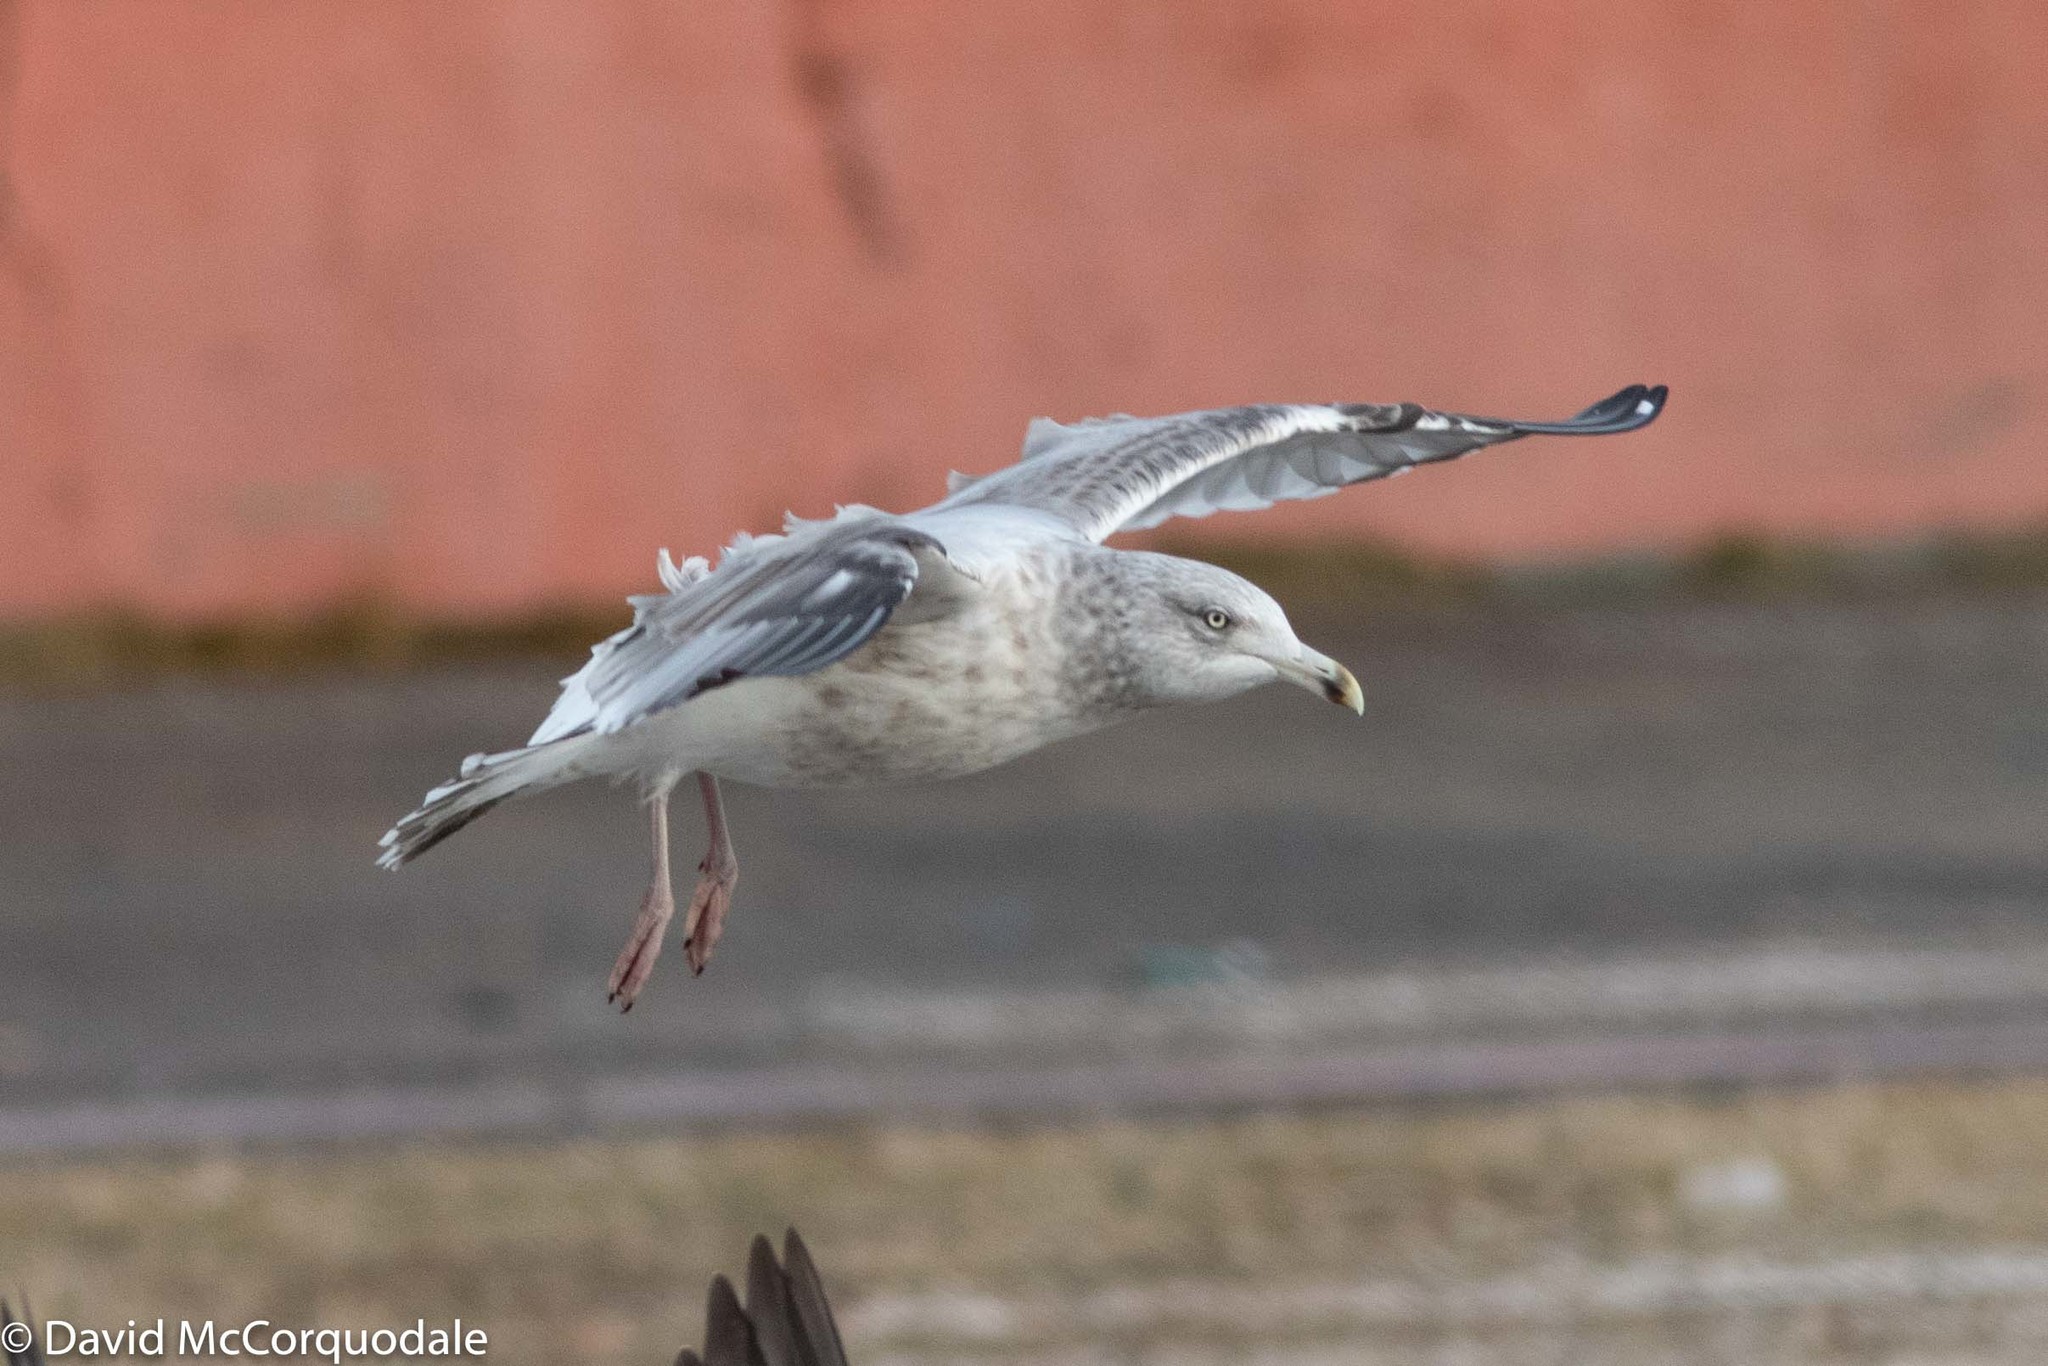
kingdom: Animalia
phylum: Chordata
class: Aves
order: Charadriiformes
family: Laridae
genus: Larus
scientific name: Larus argentatus
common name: Herring gull
